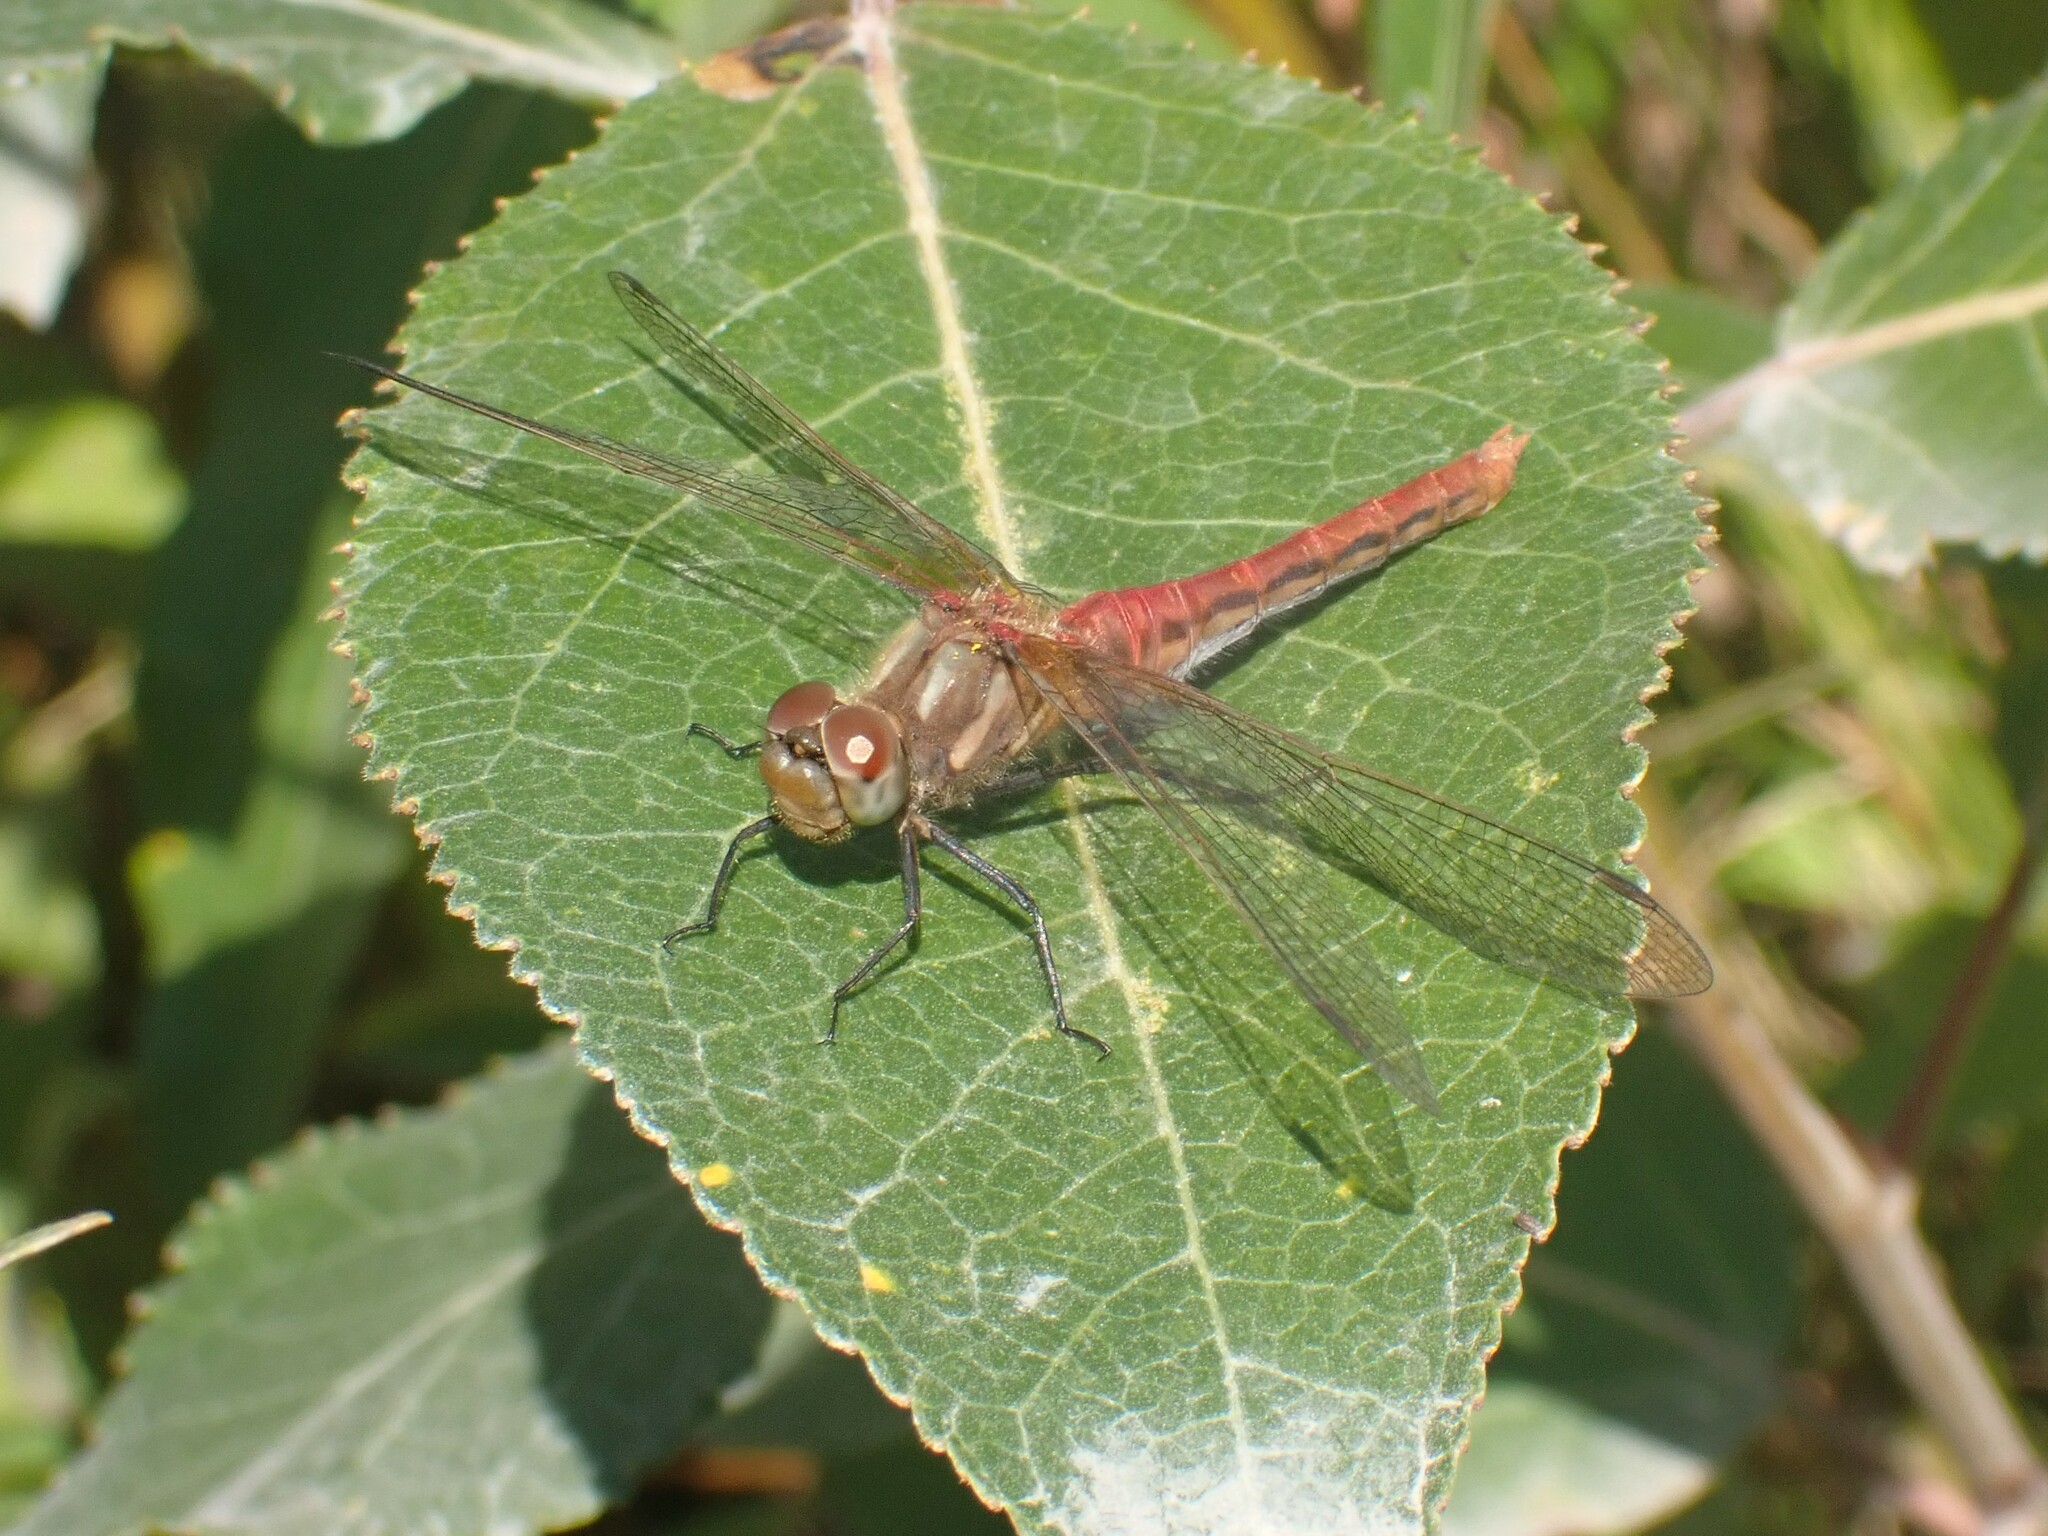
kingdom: Animalia
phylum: Arthropoda
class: Insecta
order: Odonata
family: Libellulidae
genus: Sympetrum
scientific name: Sympetrum pallipes
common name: Striped meadowhawk
